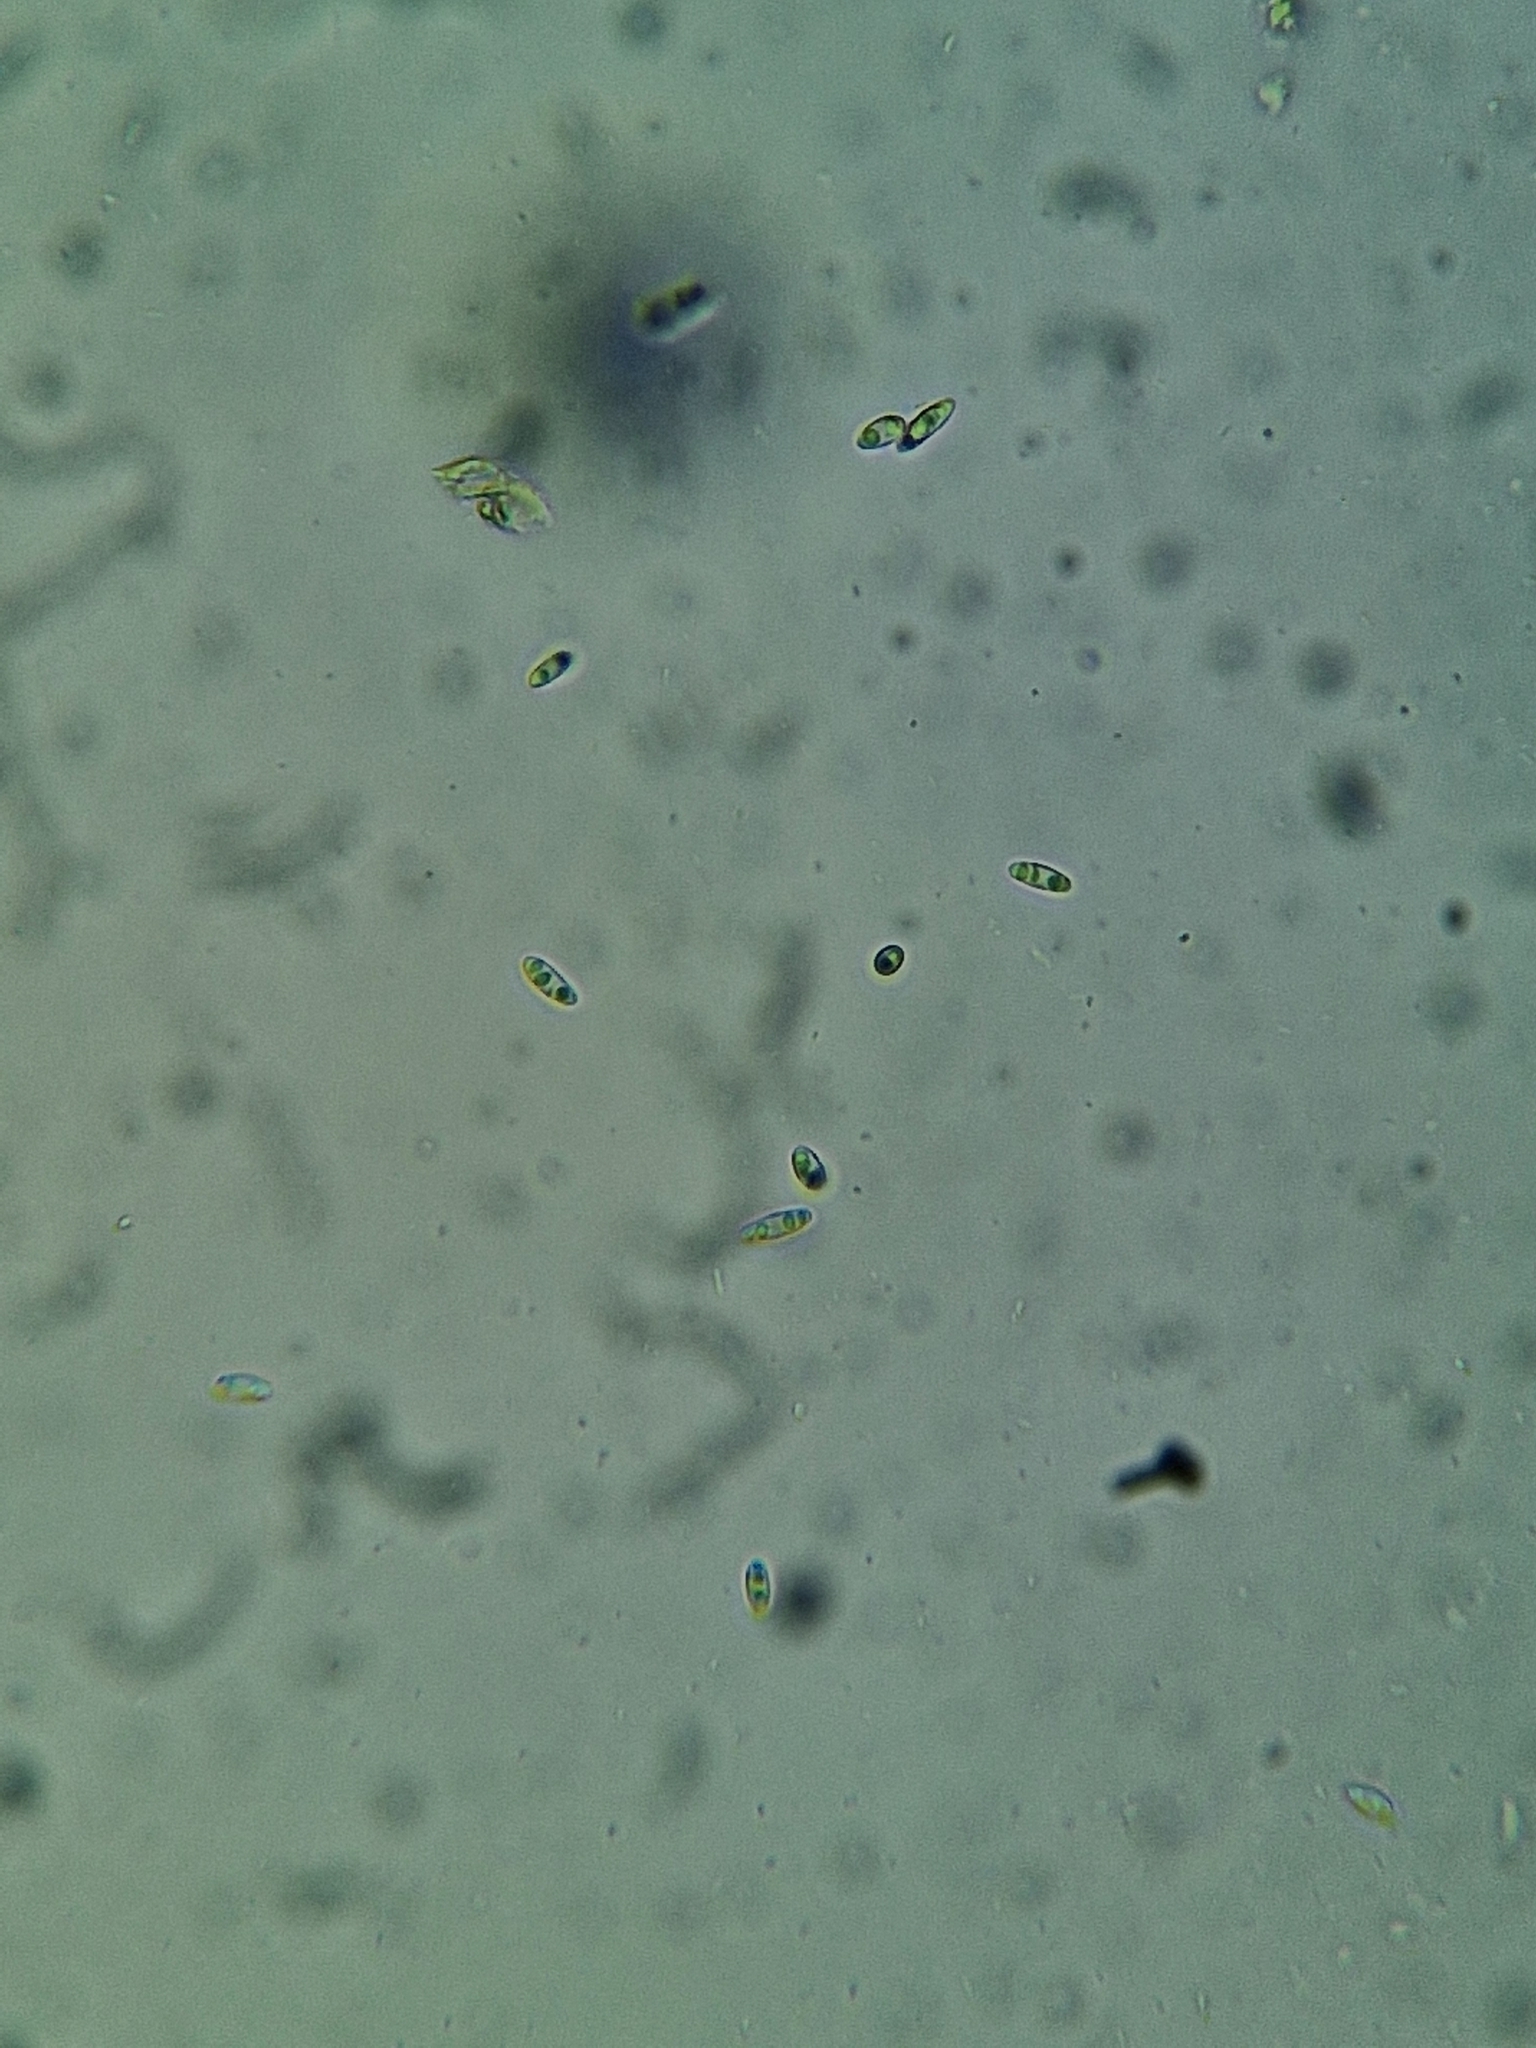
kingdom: Fungi
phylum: Ascomycota
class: Sordariomycetes
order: Diaporthales
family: Diaporthaceae
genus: Diaporthe
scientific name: Diaporthe samaricola
